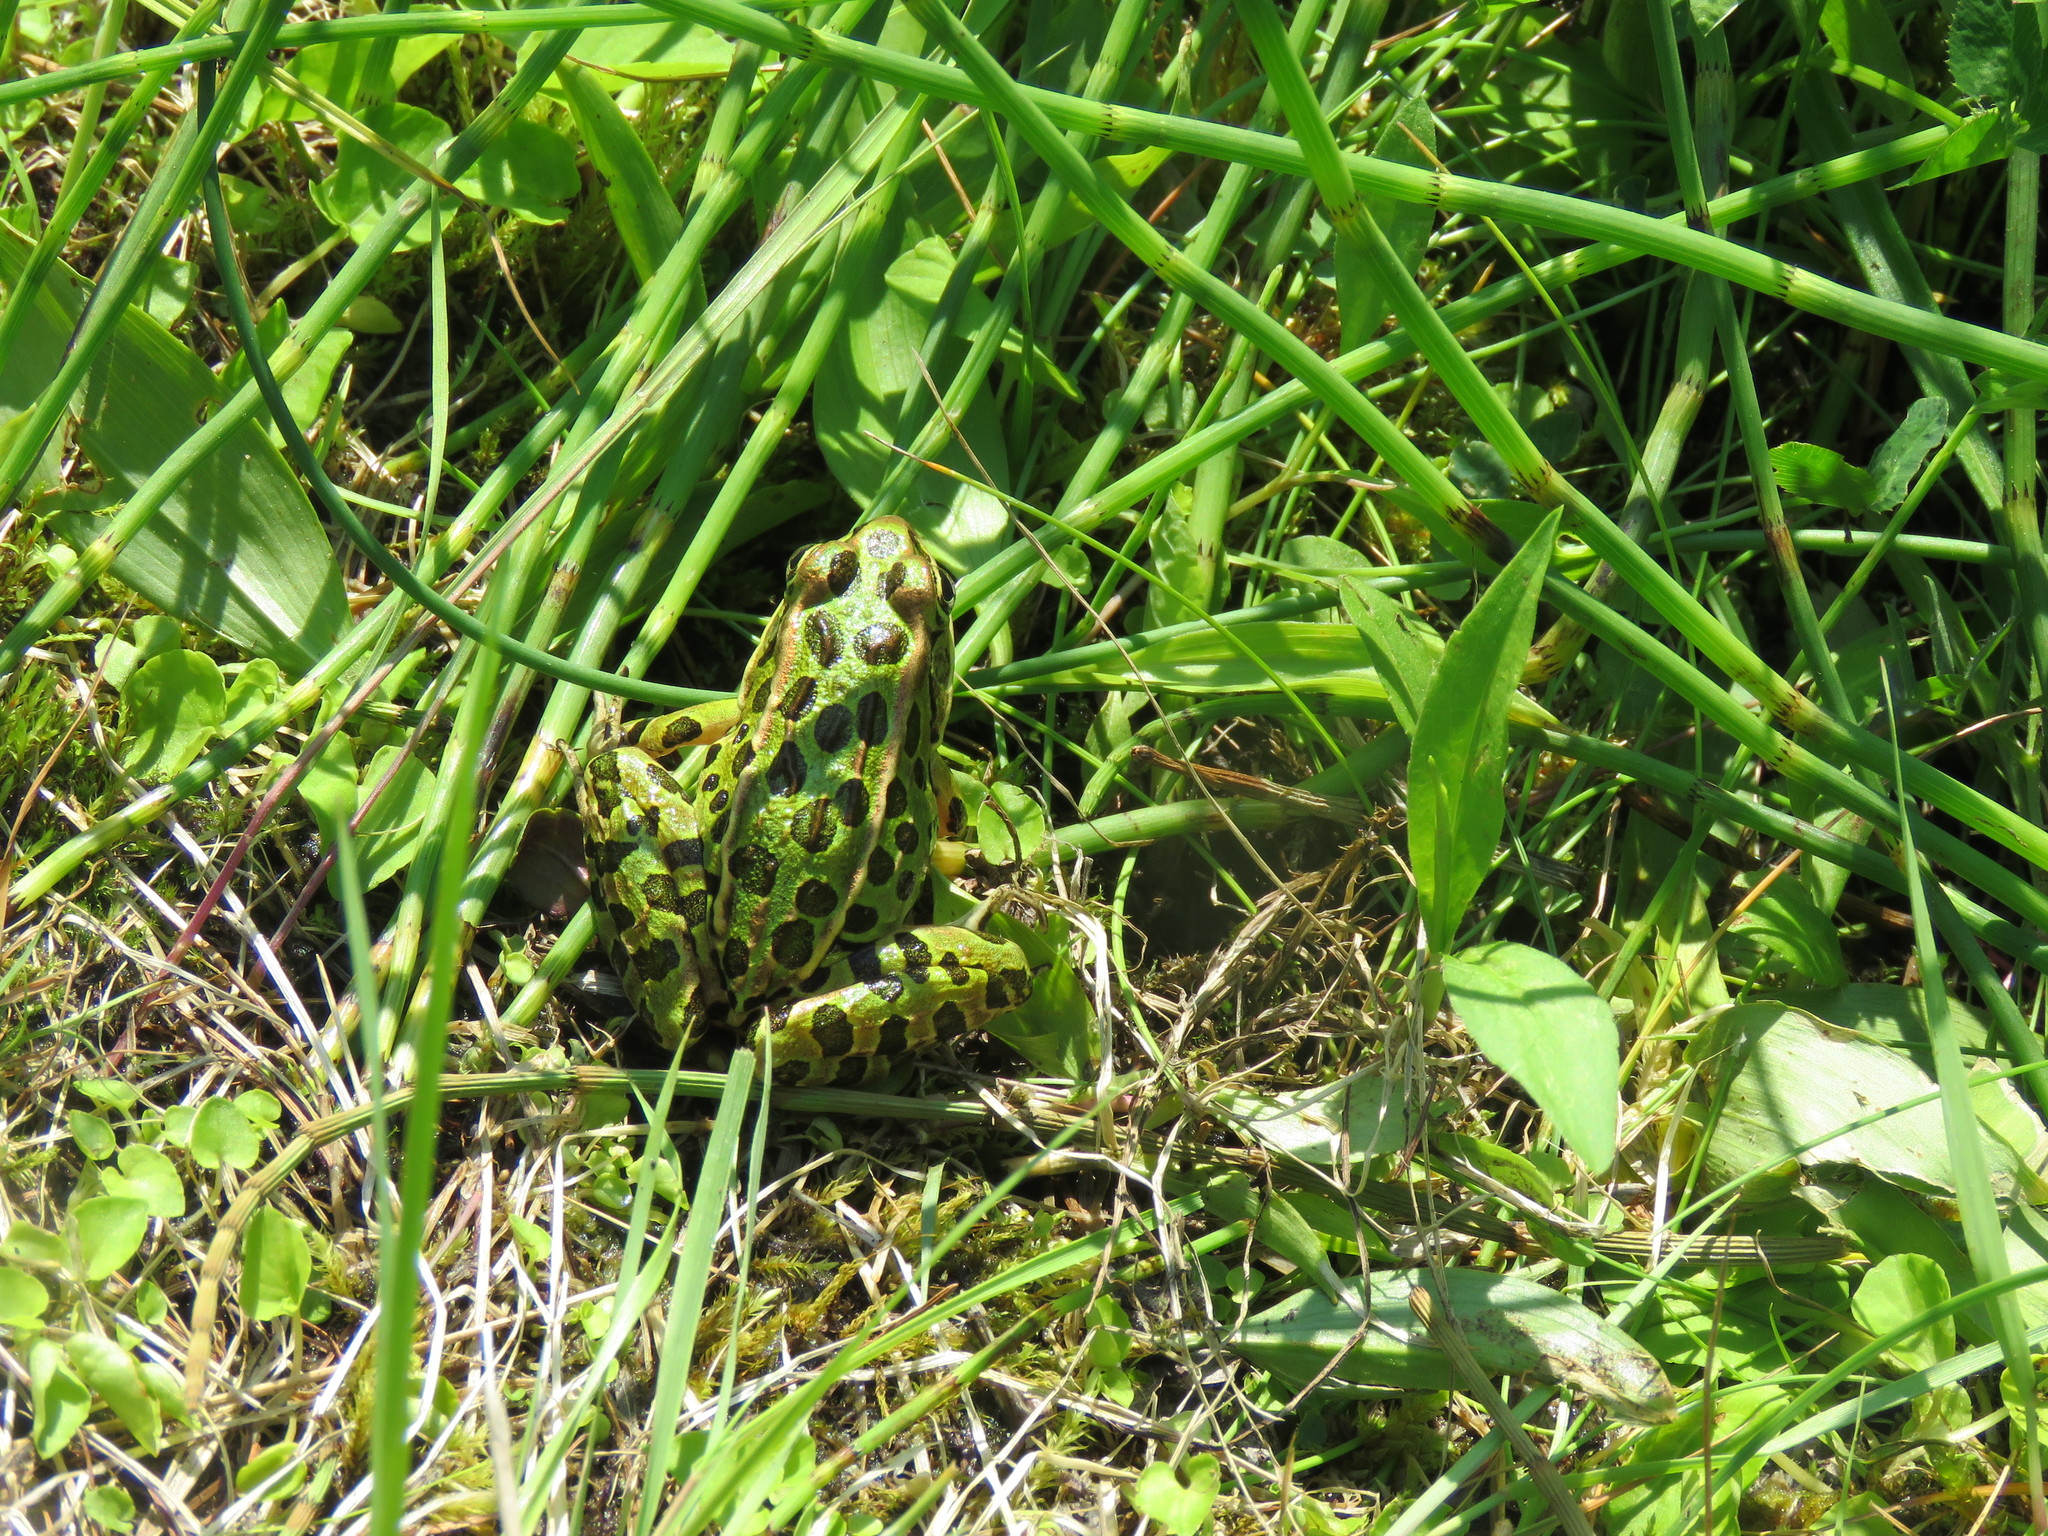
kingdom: Animalia
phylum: Chordata
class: Amphibia
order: Anura
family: Ranidae
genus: Lithobates
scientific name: Lithobates pipiens
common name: Northern leopard frog
